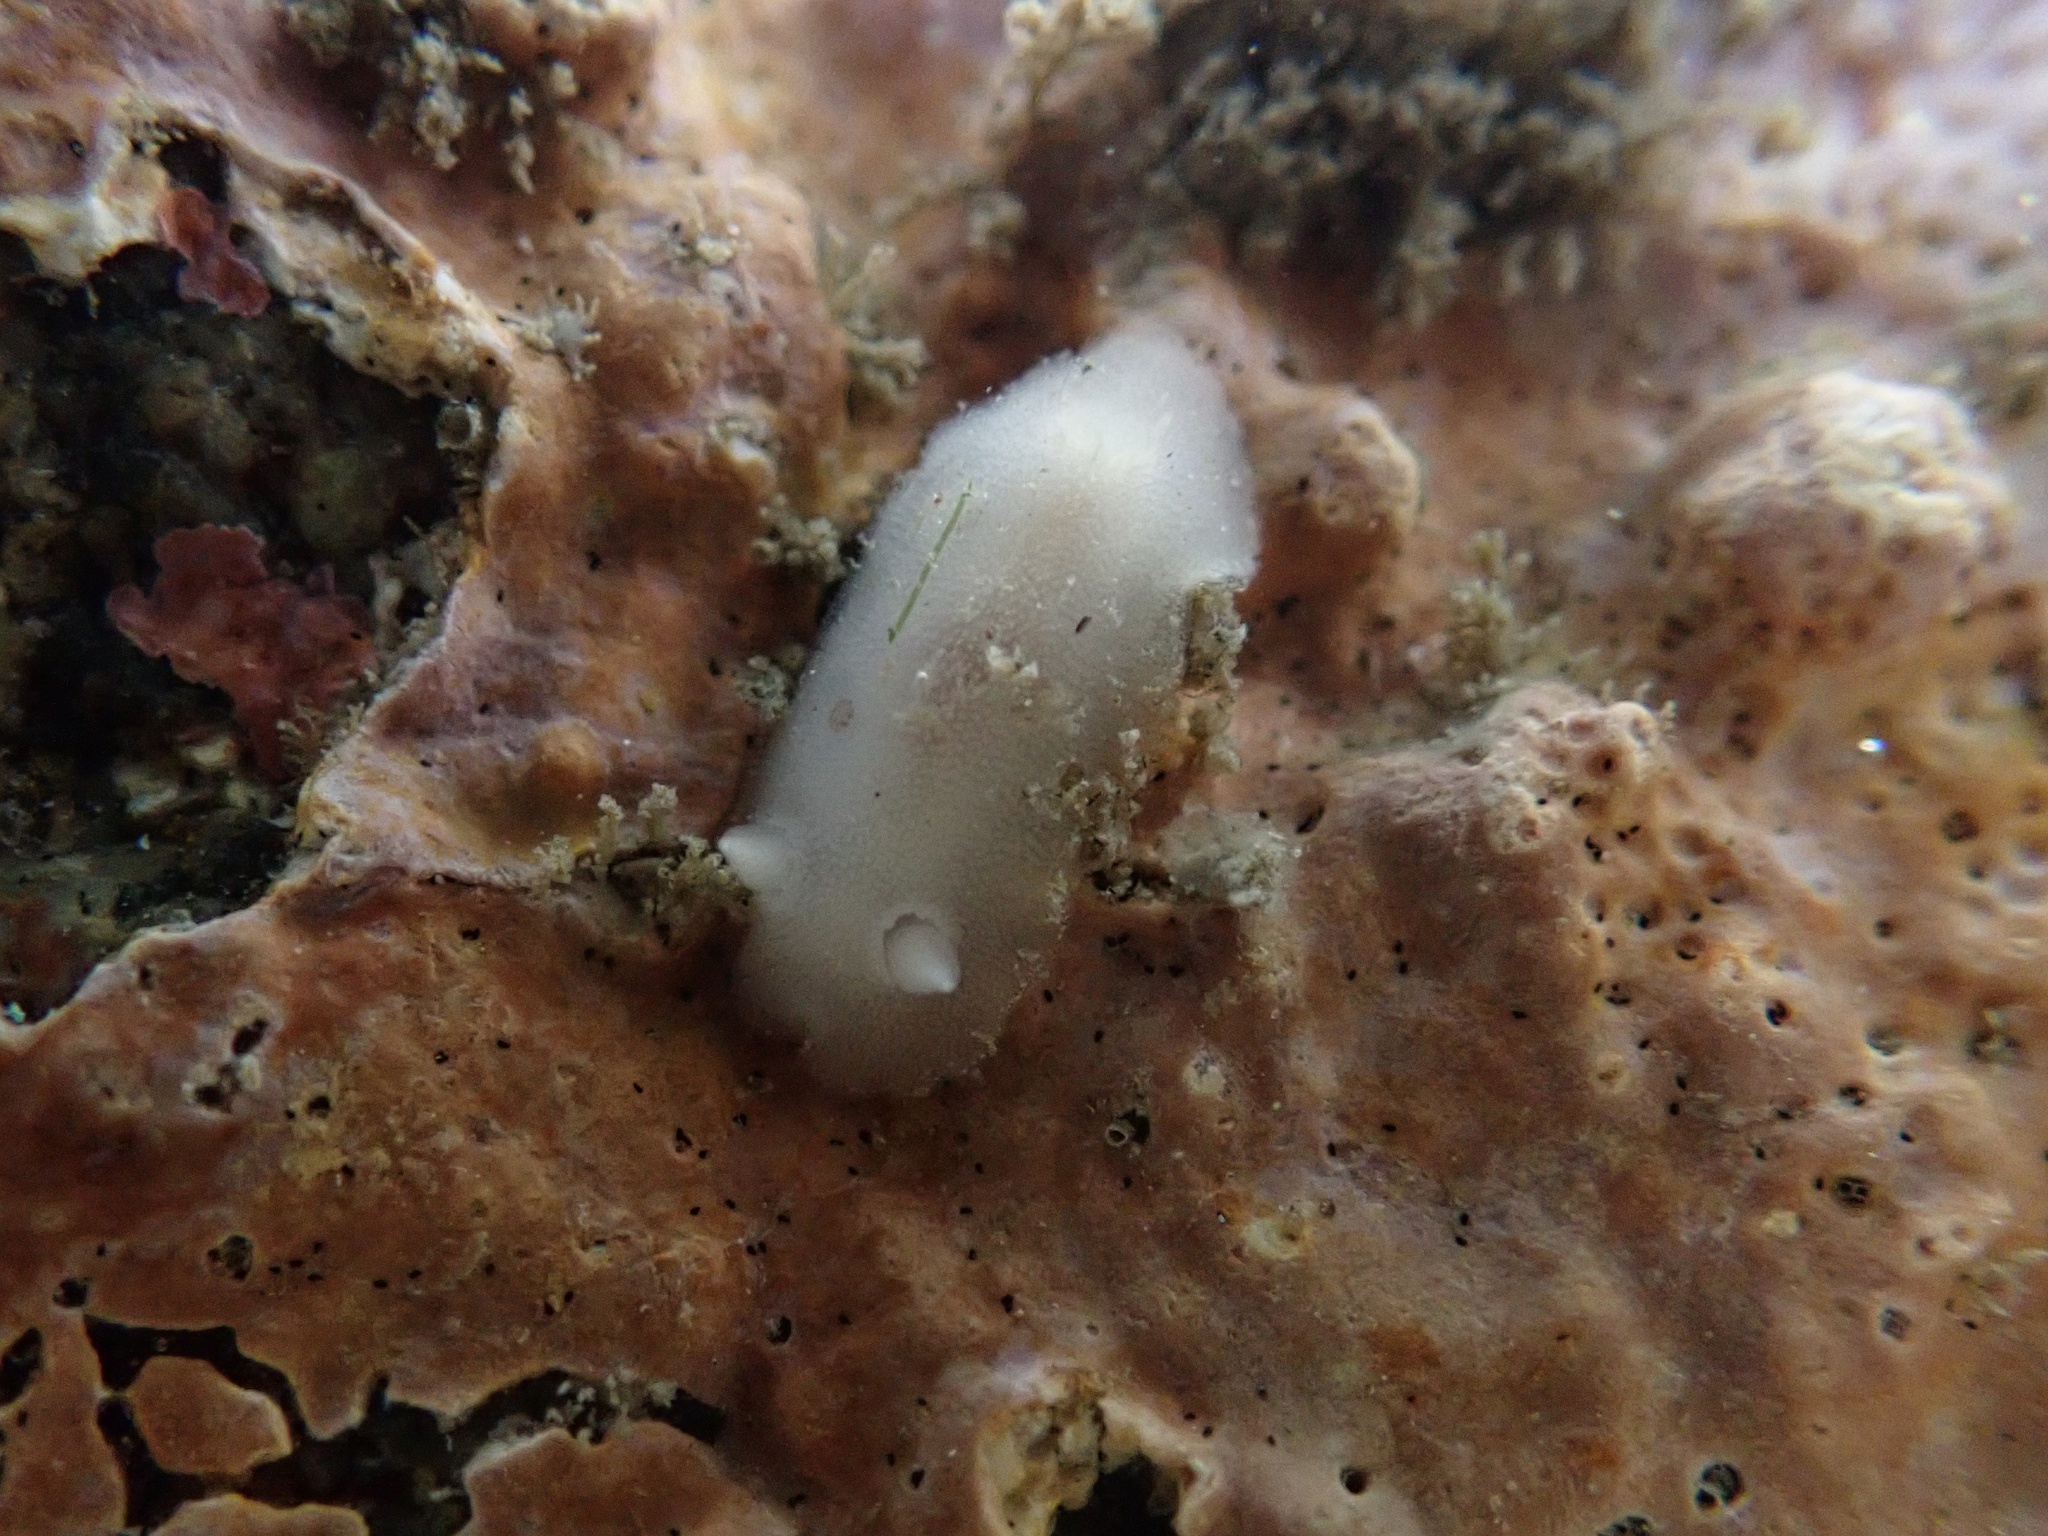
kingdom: Animalia
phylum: Mollusca
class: Gastropoda
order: Nudibranchia
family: Discodorididae
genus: Diaulula
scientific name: Diaulula sandiegensis
